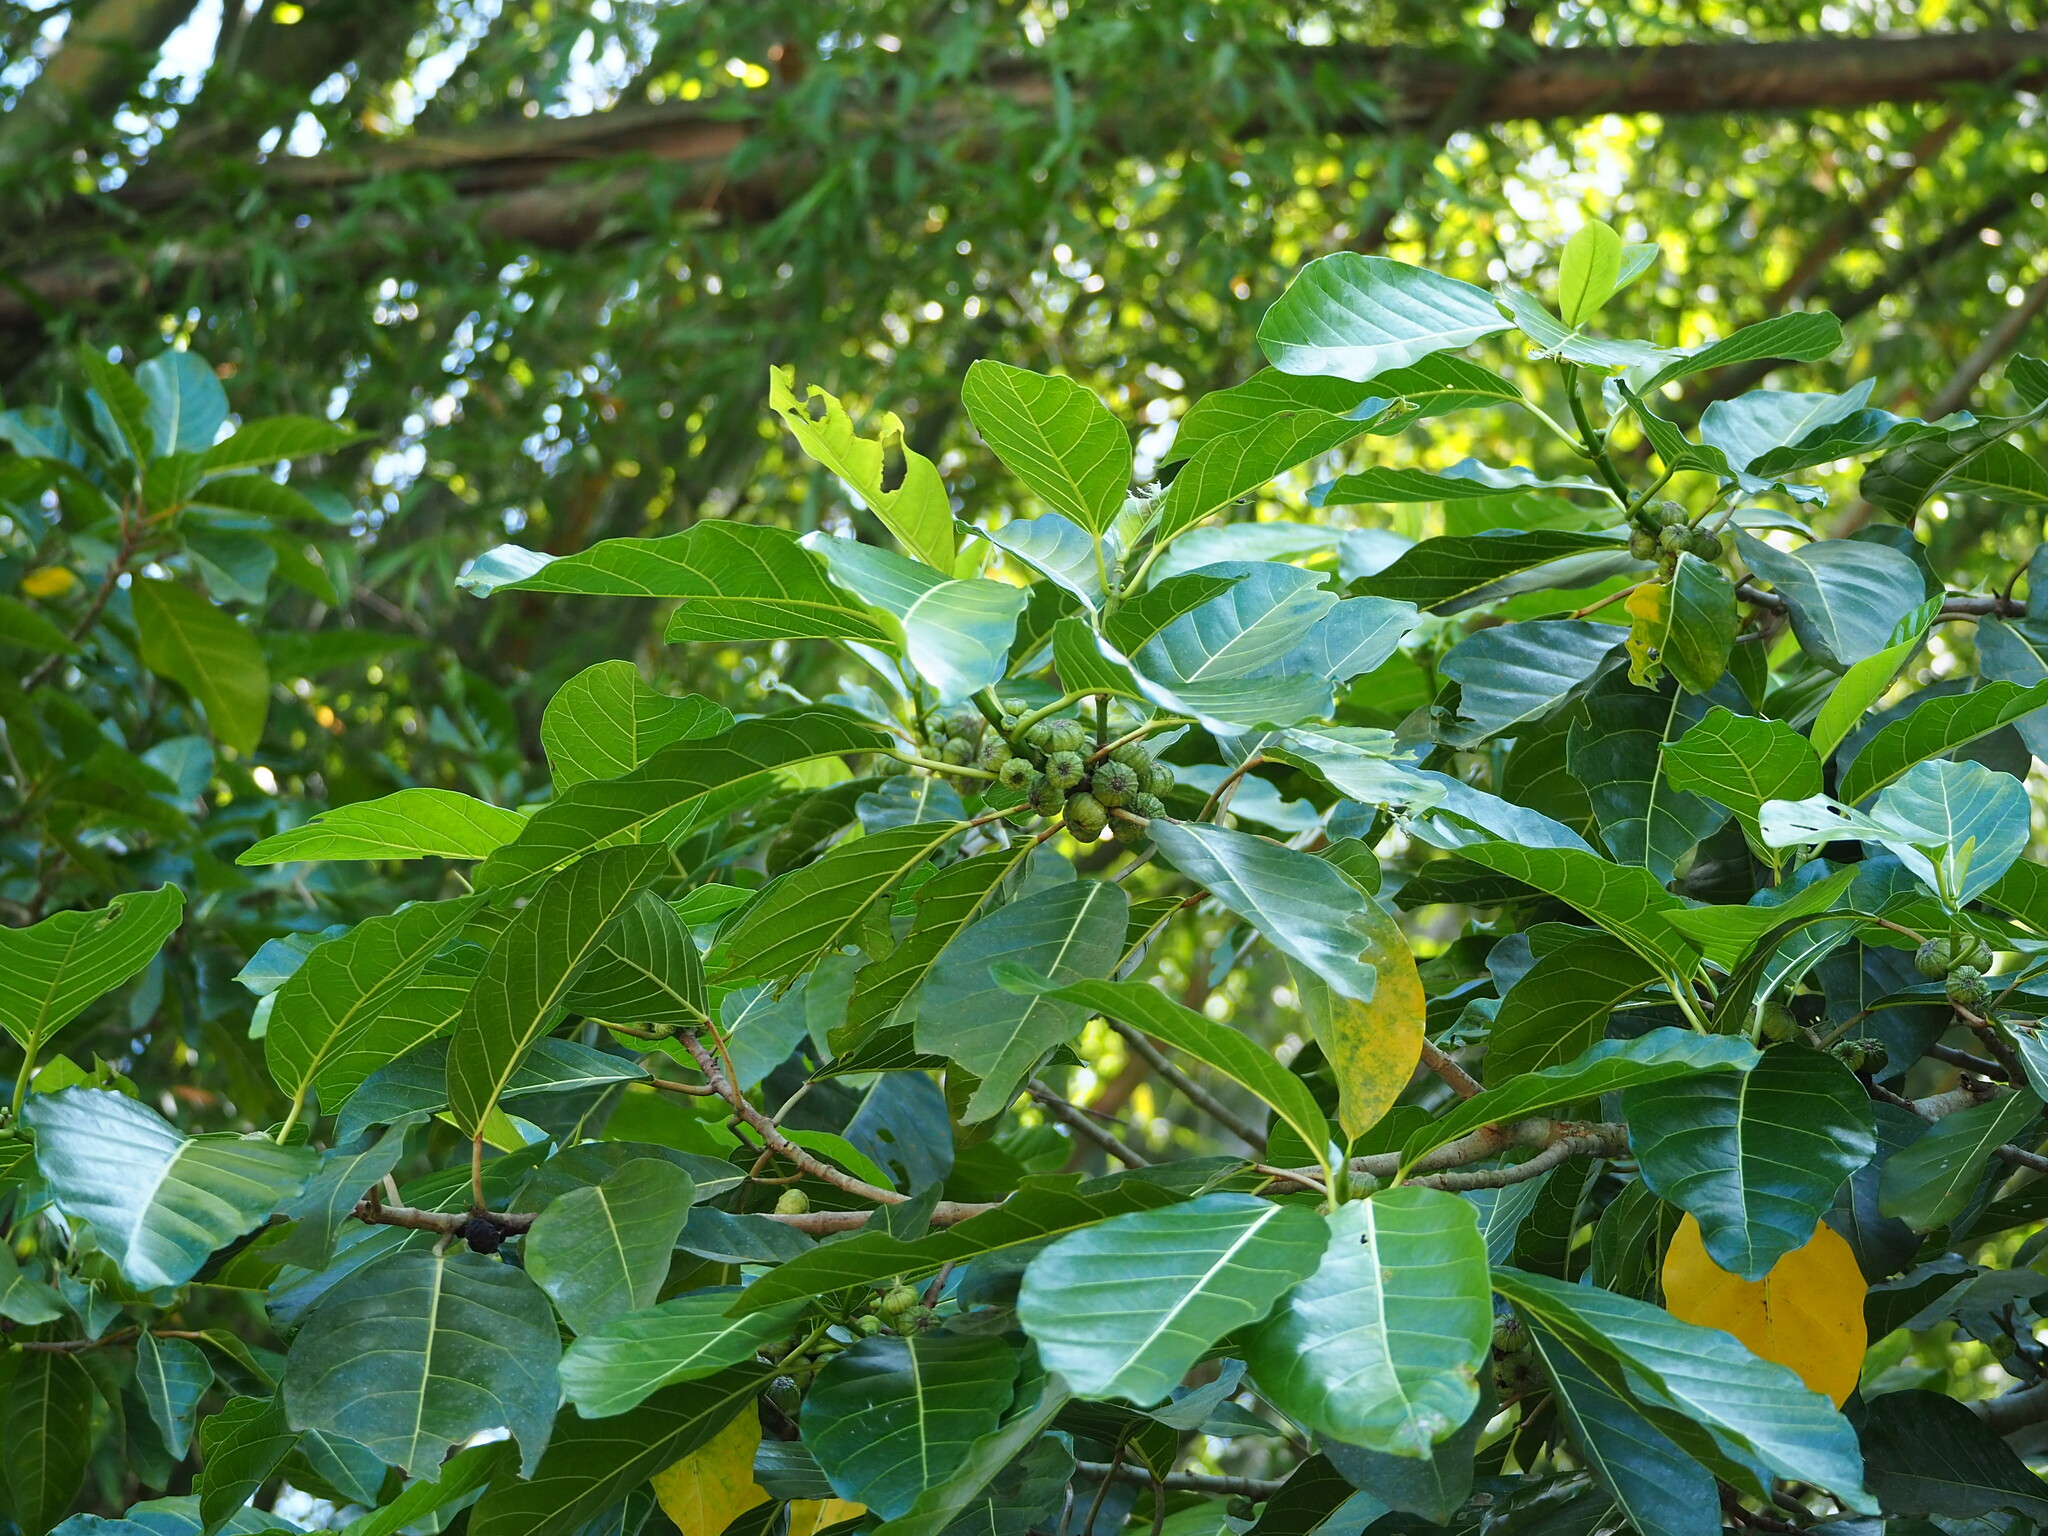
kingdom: Plantae
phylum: Tracheophyta
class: Magnoliopsida
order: Rosales
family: Moraceae
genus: Ficus
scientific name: Ficus septica
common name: Septic fig
